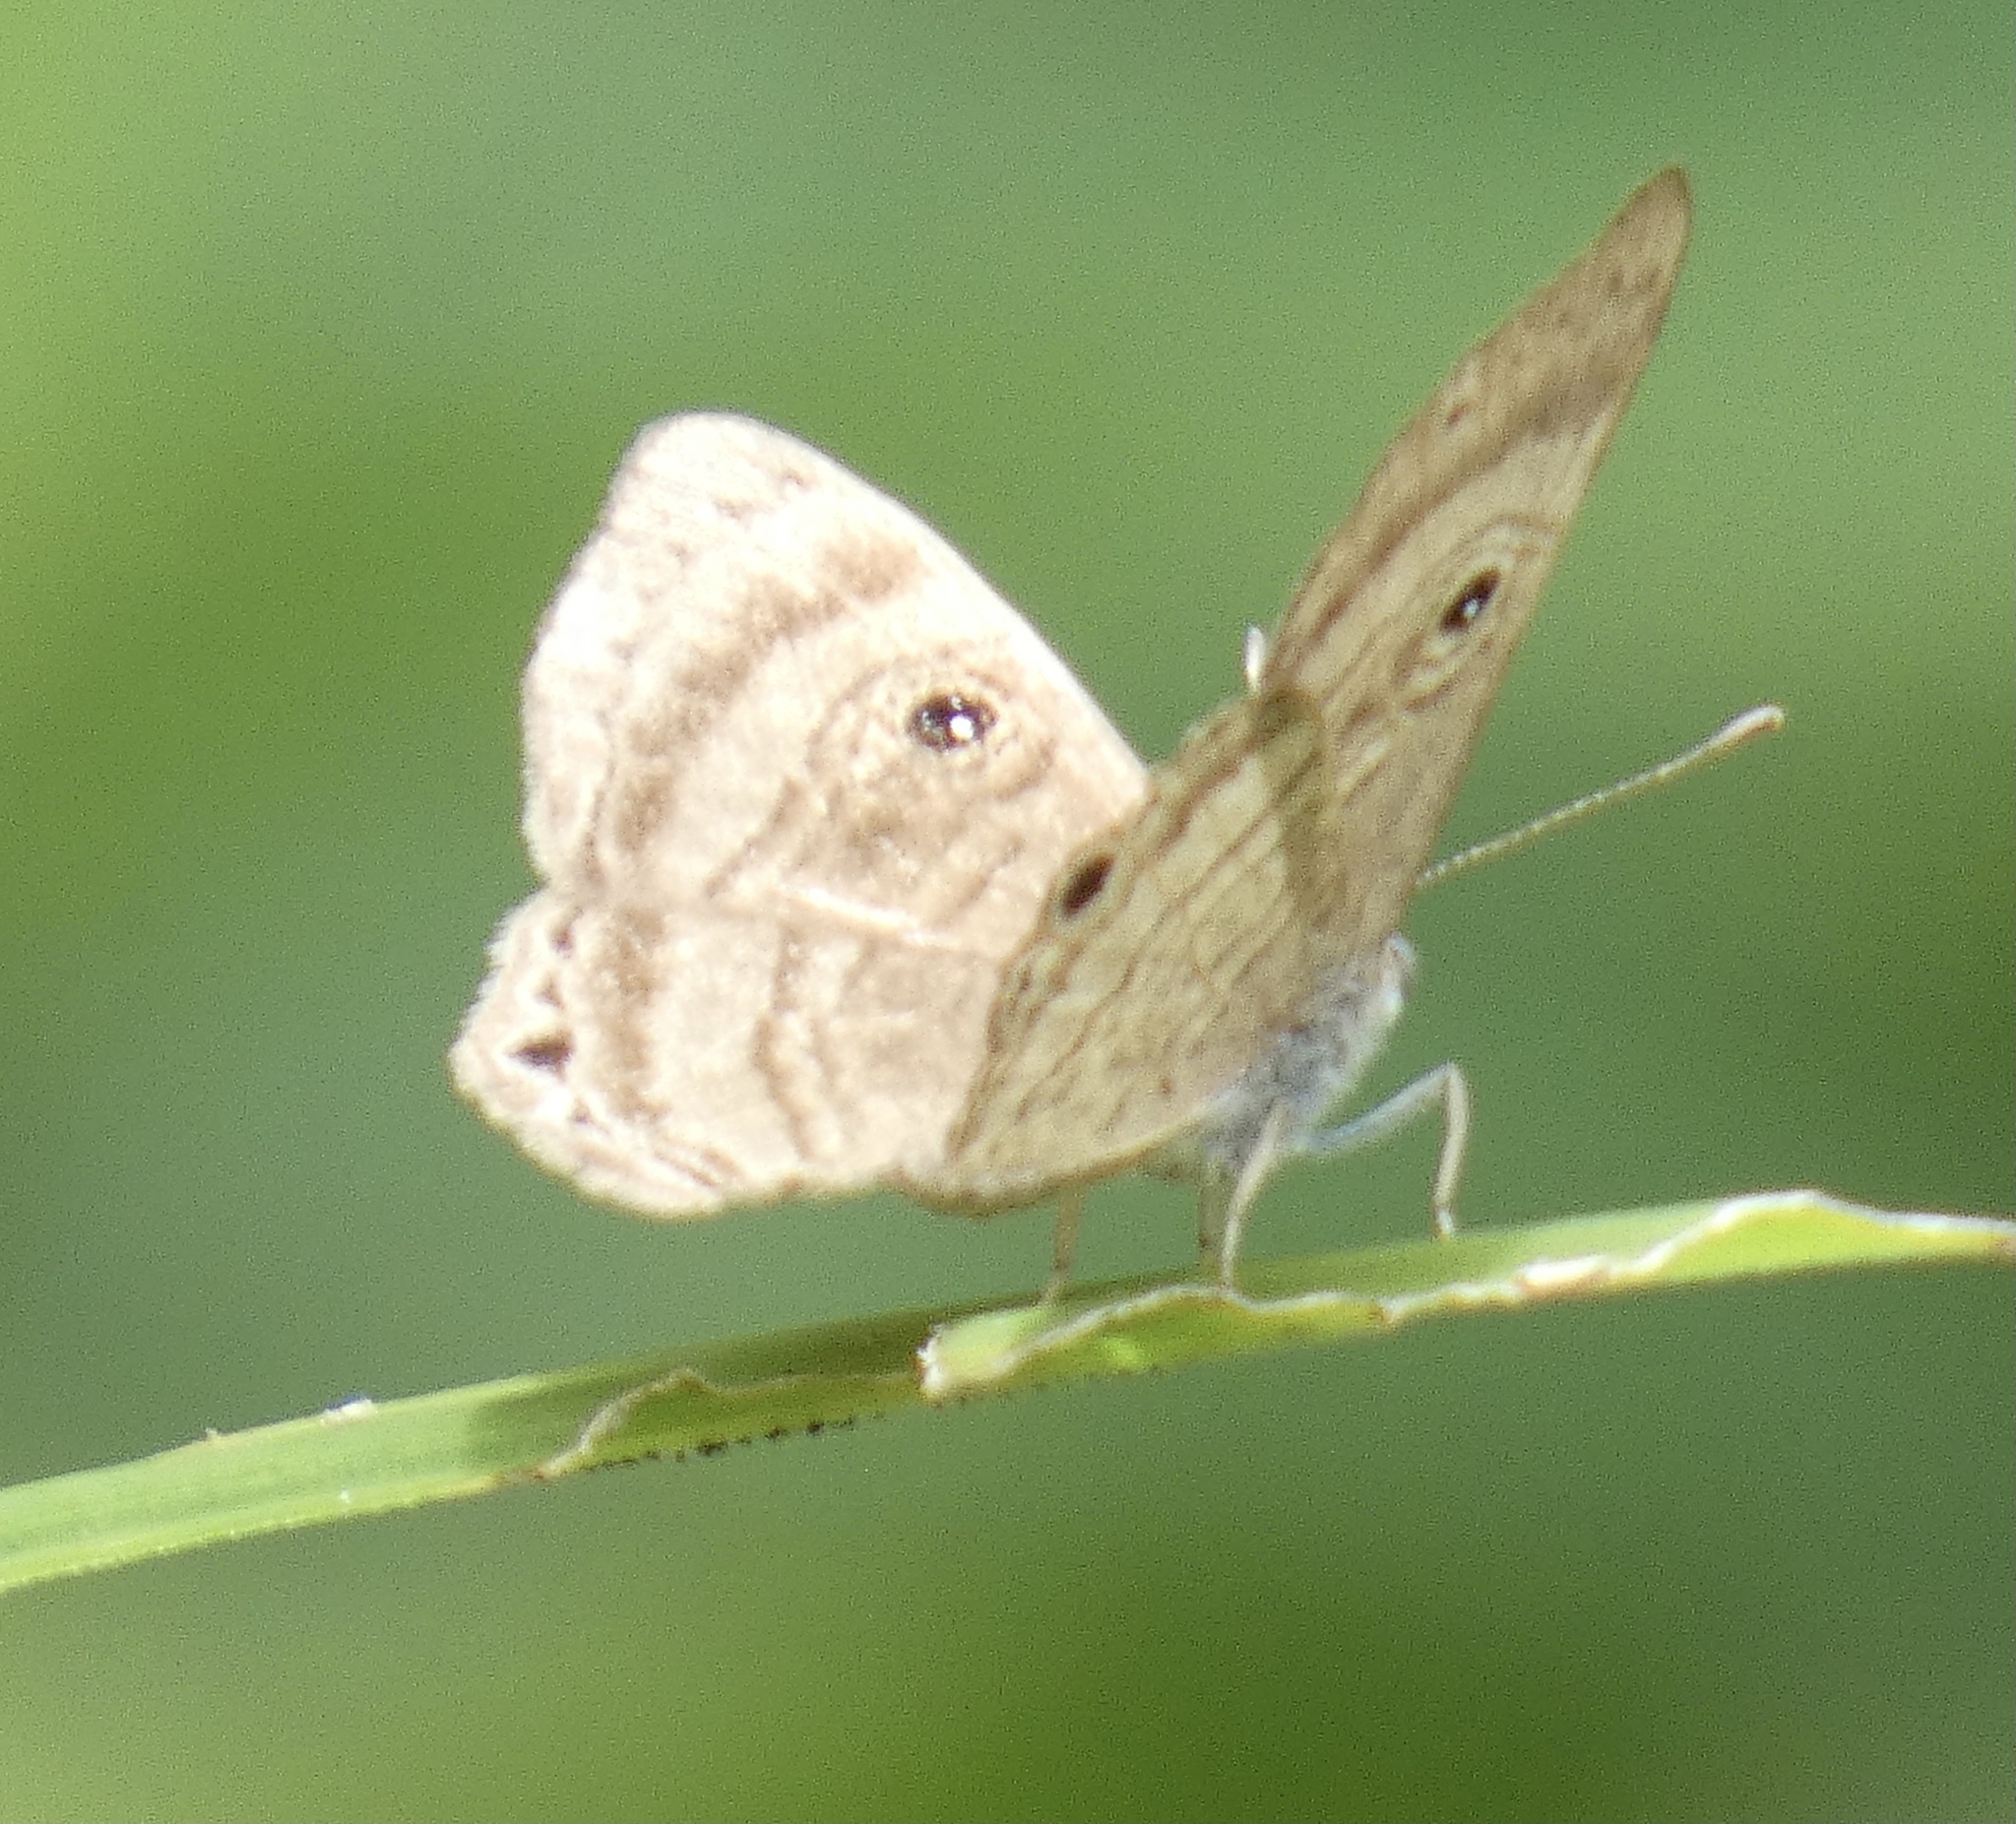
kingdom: Animalia
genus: Mesosemia
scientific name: Mesosemia odice
